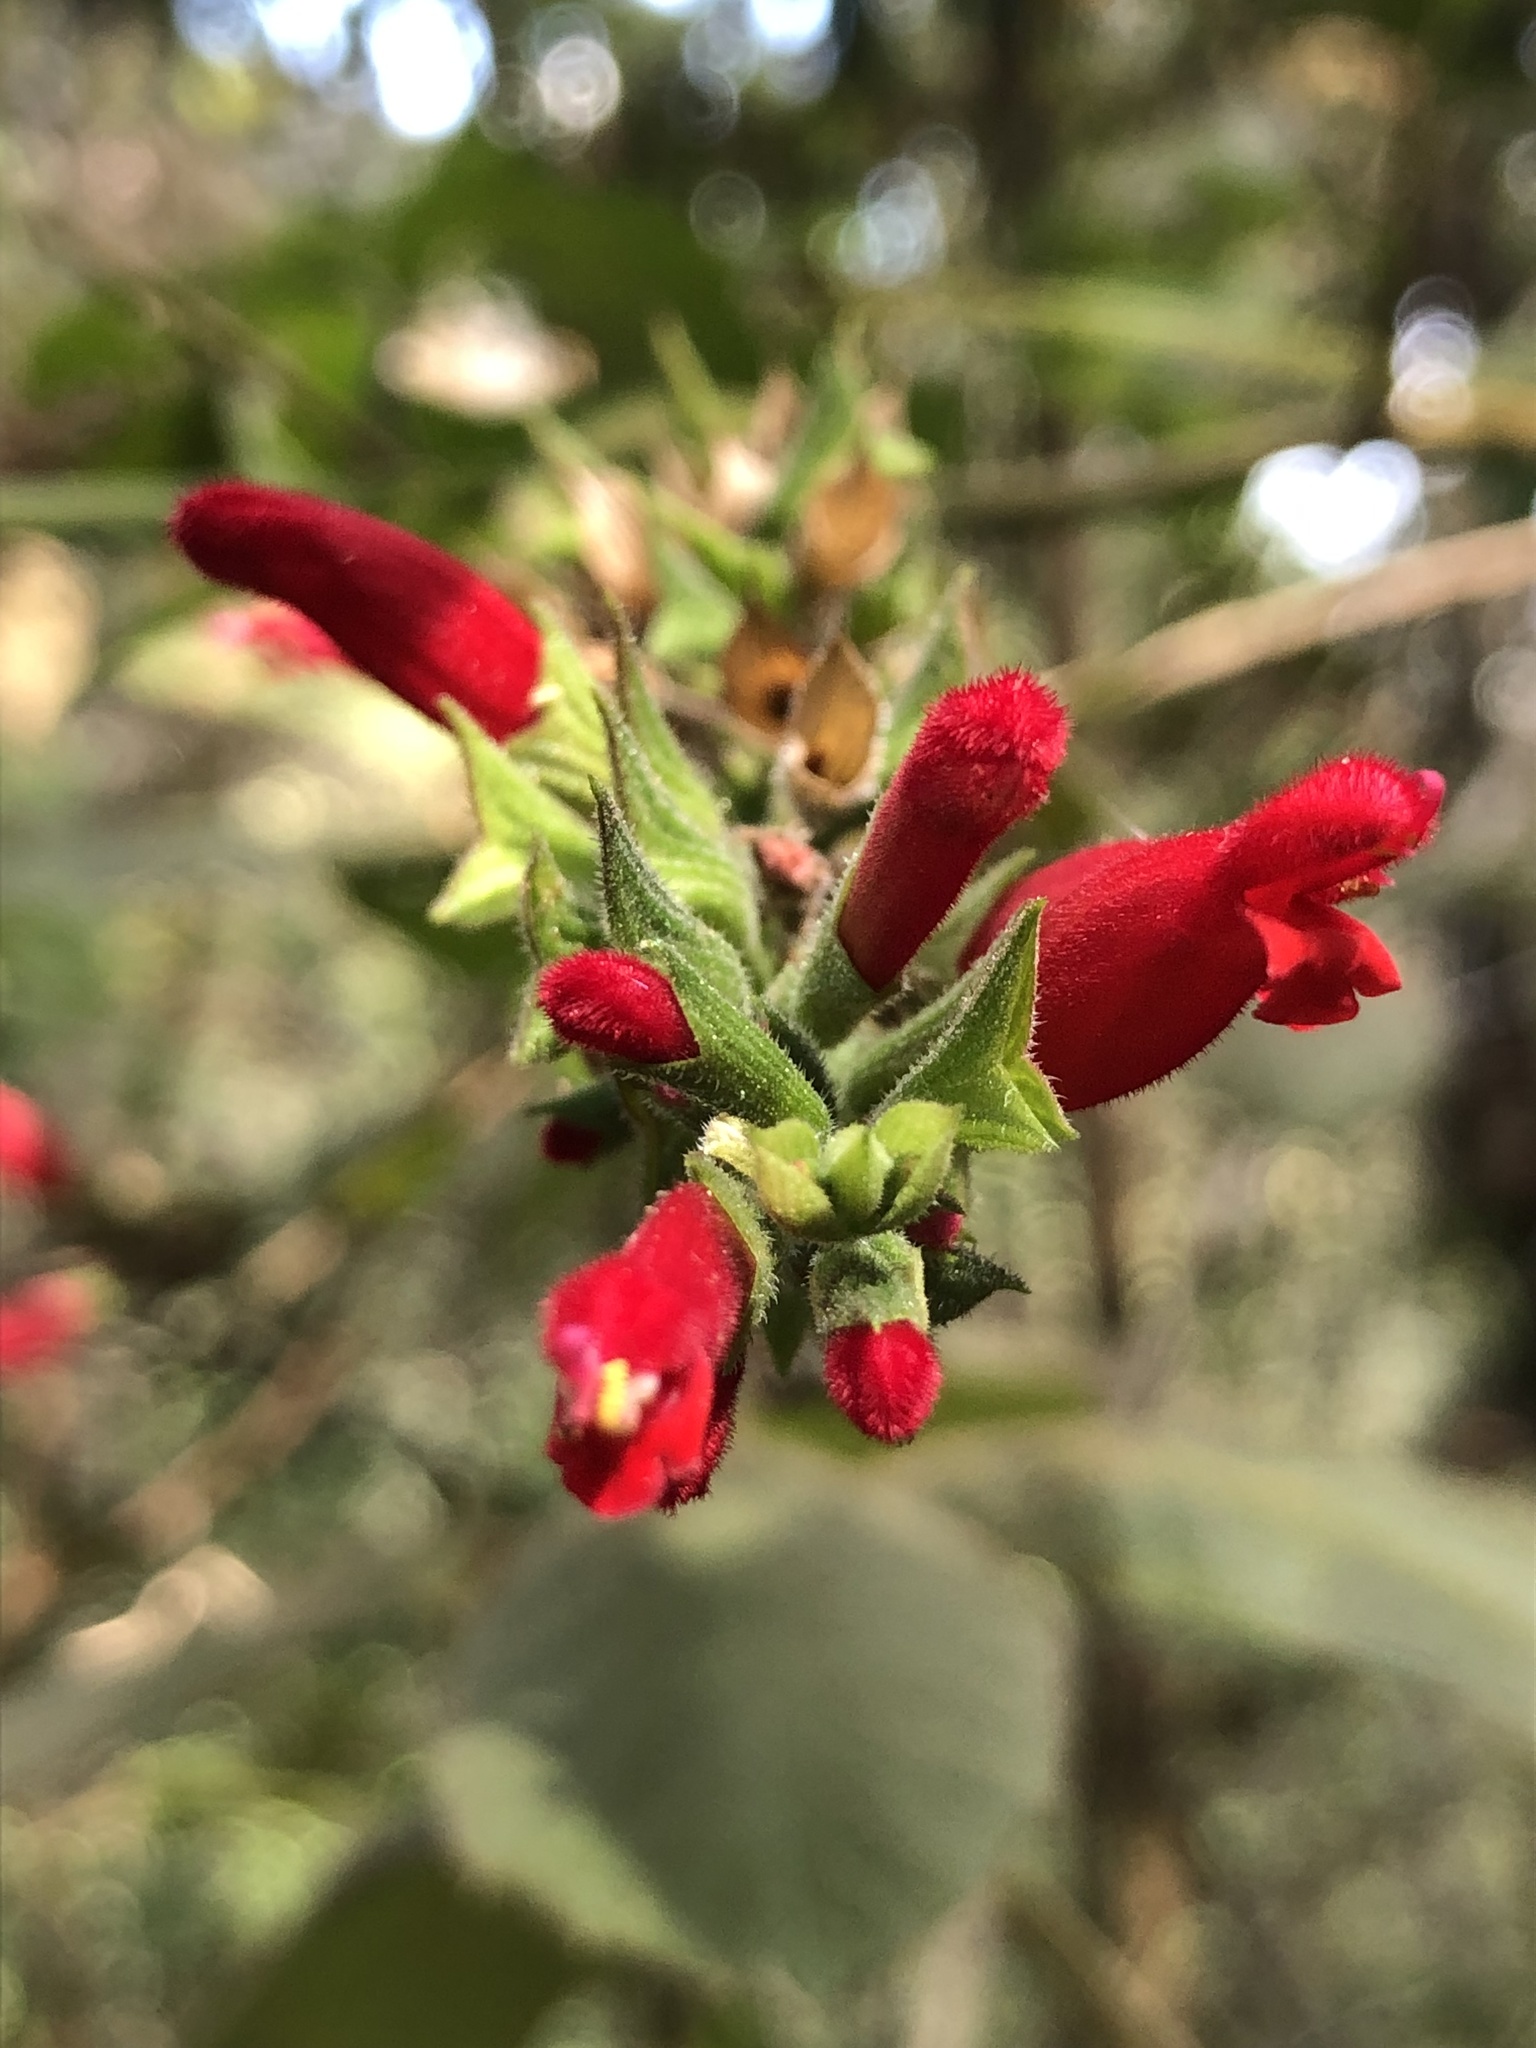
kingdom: Plantae
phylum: Tracheophyta
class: Magnoliopsida
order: Lamiales
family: Lamiaceae
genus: Salvia
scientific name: Salvia holwayi
